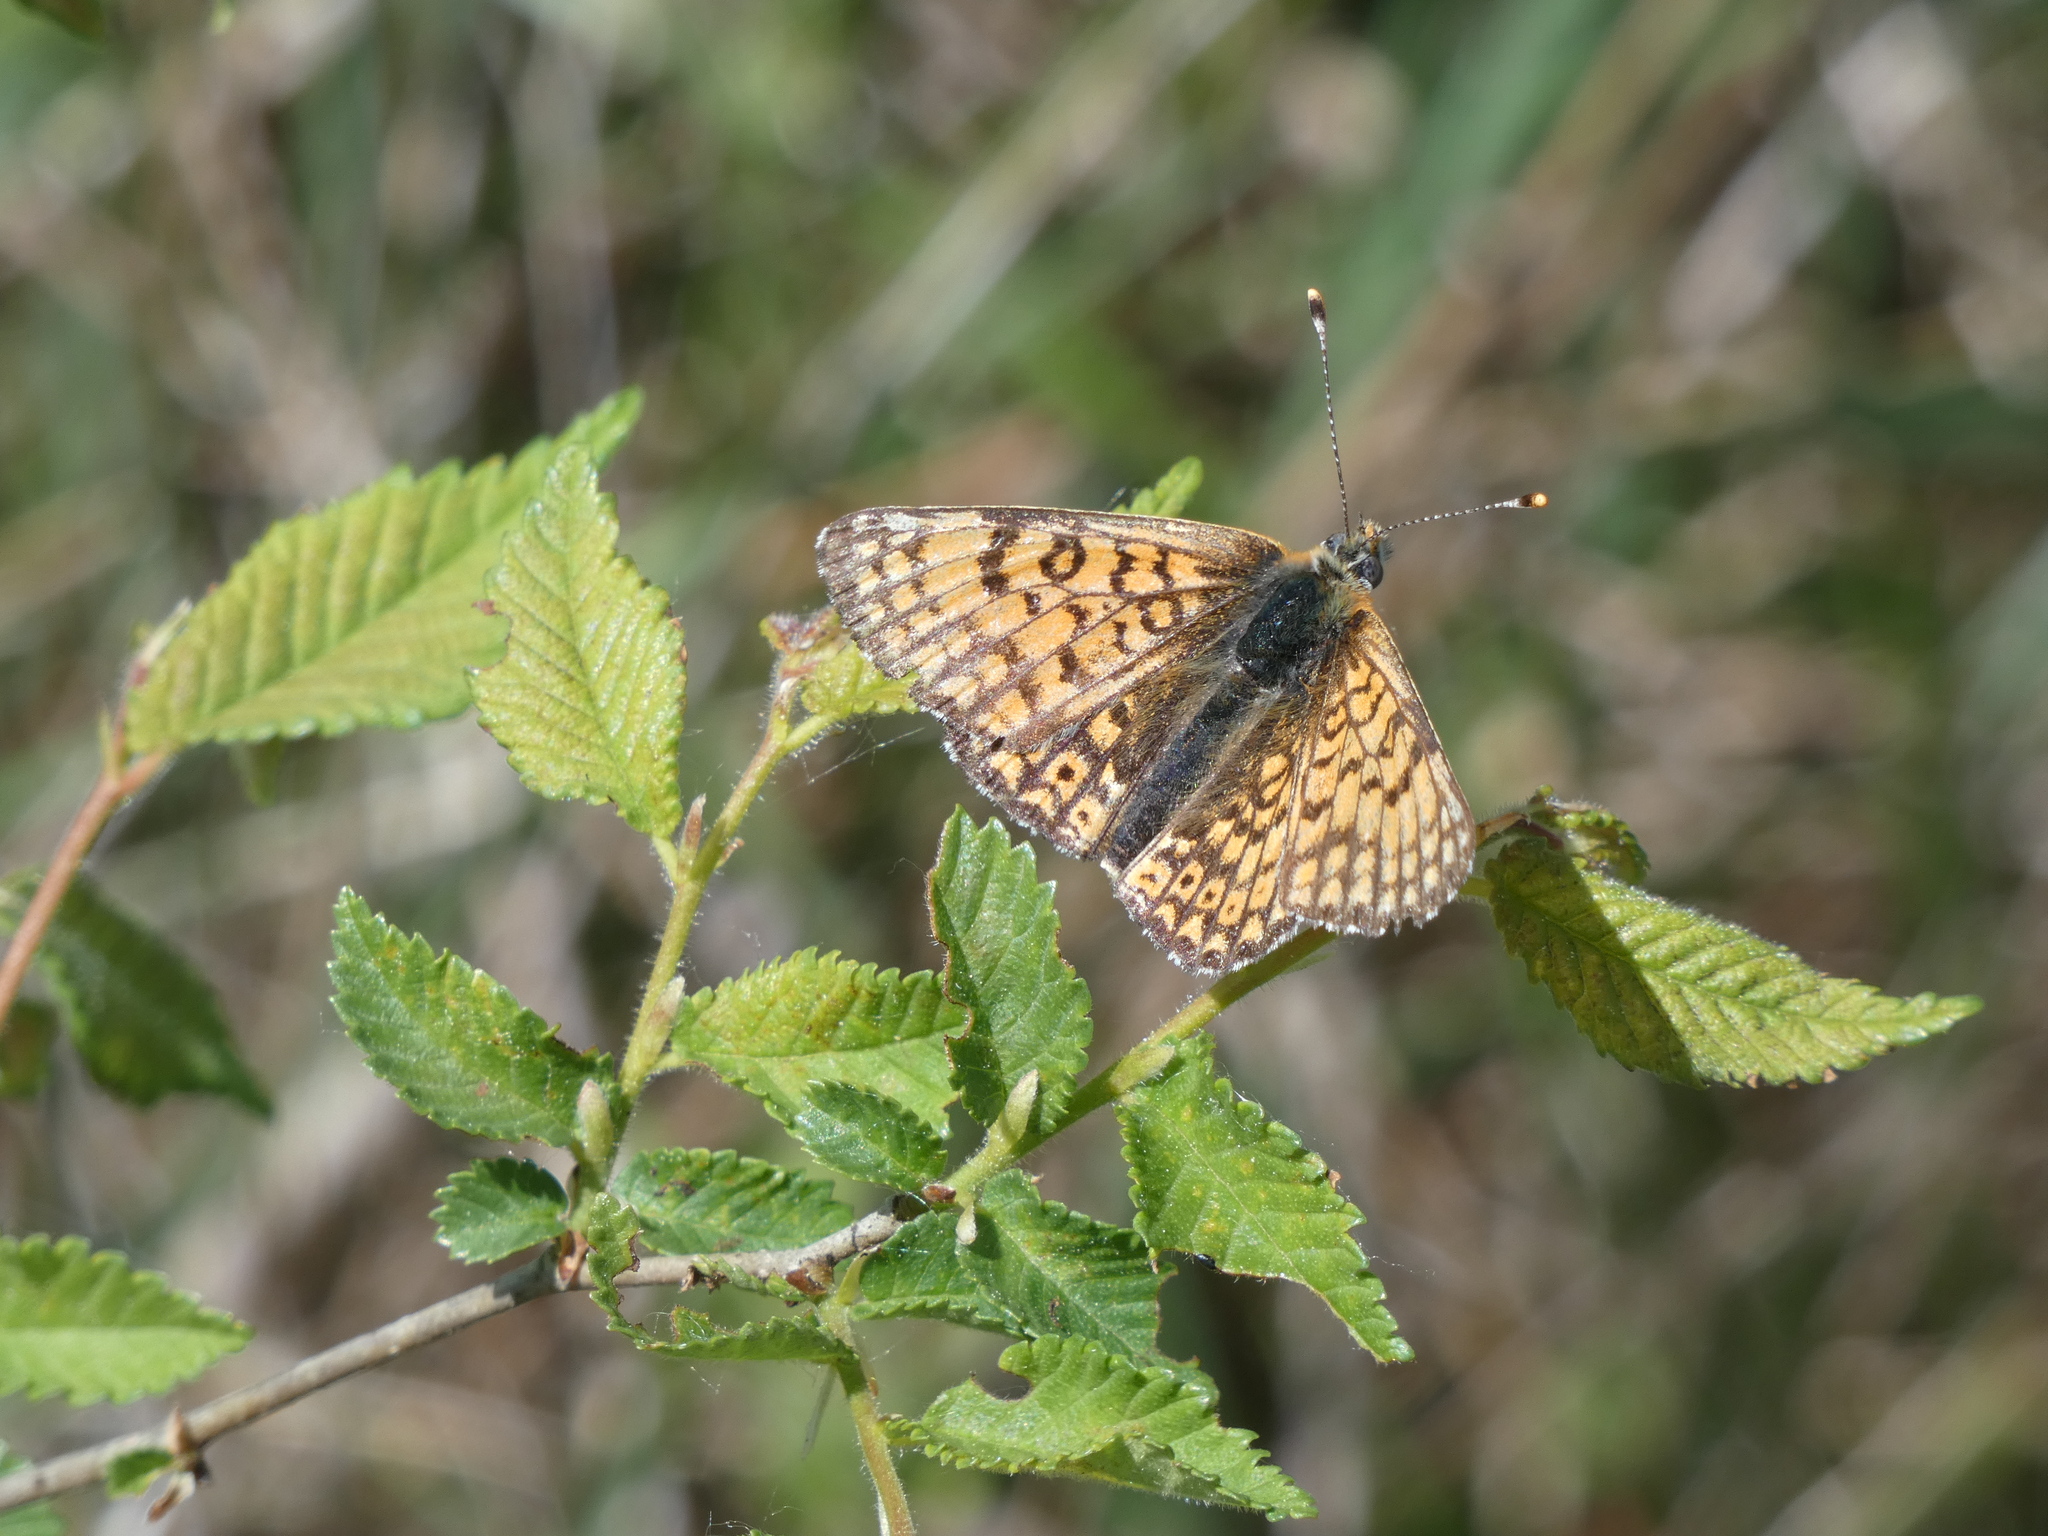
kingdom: Animalia
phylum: Arthropoda
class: Insecta
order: Lepidoptera
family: Nymphalidae
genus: Melitaea
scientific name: Melitaea cinxia
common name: Glanville fritillary
